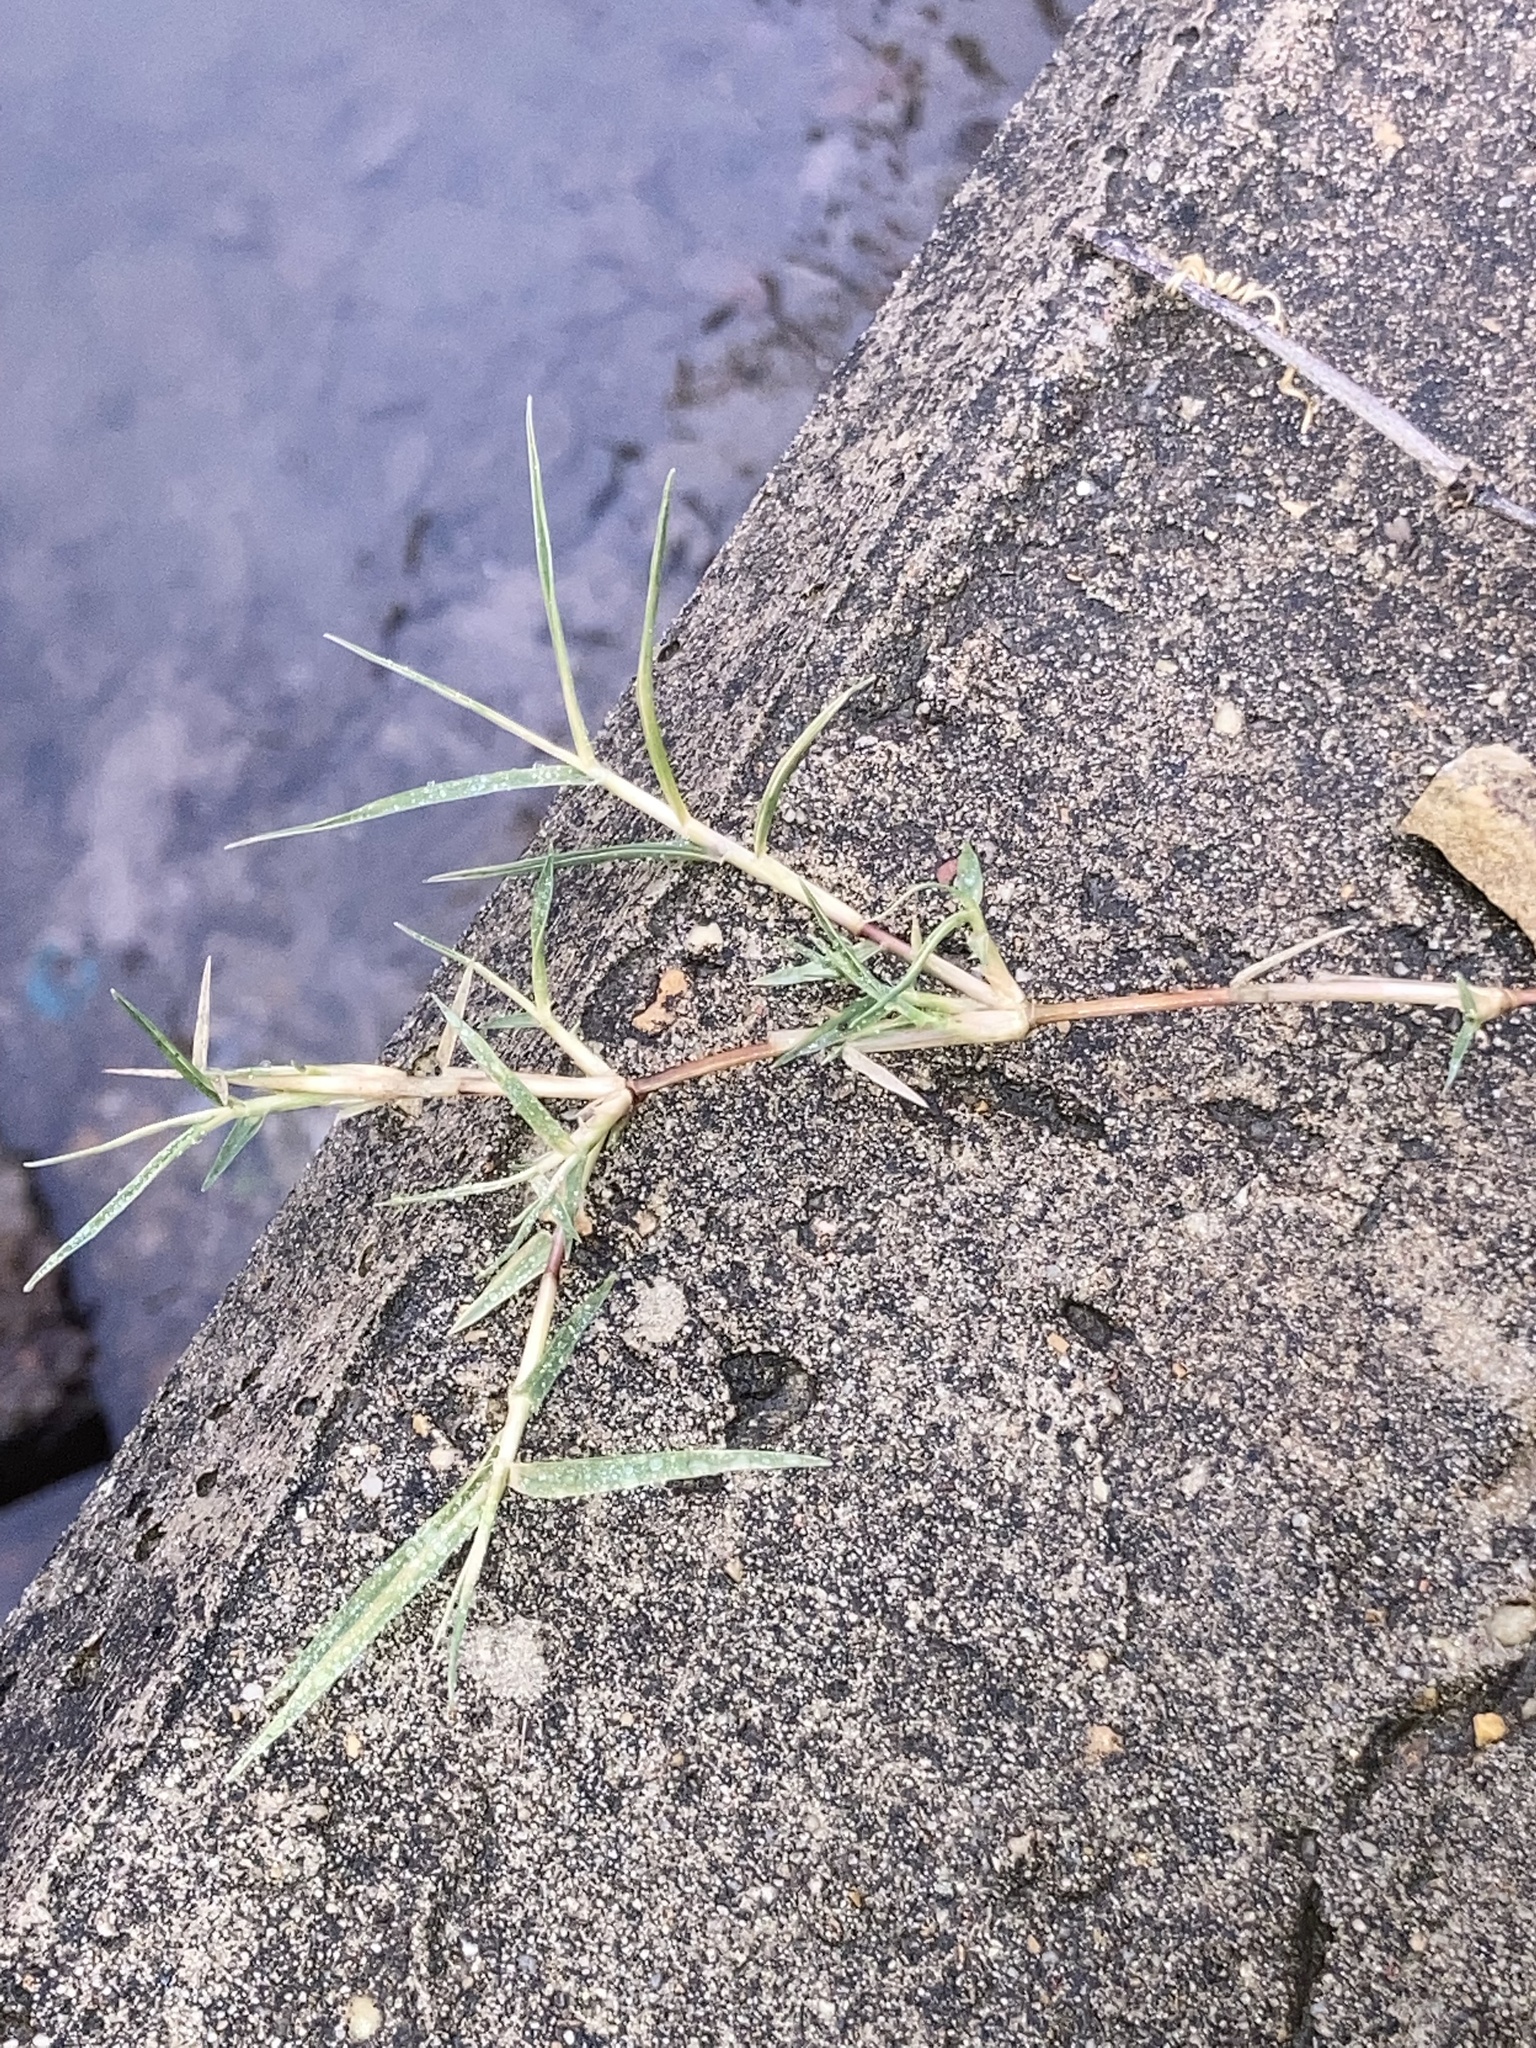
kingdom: Plantae
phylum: Tracheophyta
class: Liliopsida
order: Poales
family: Poaceae
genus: Cynodon
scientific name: Cynodon dactylon
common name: Bermuda grass
